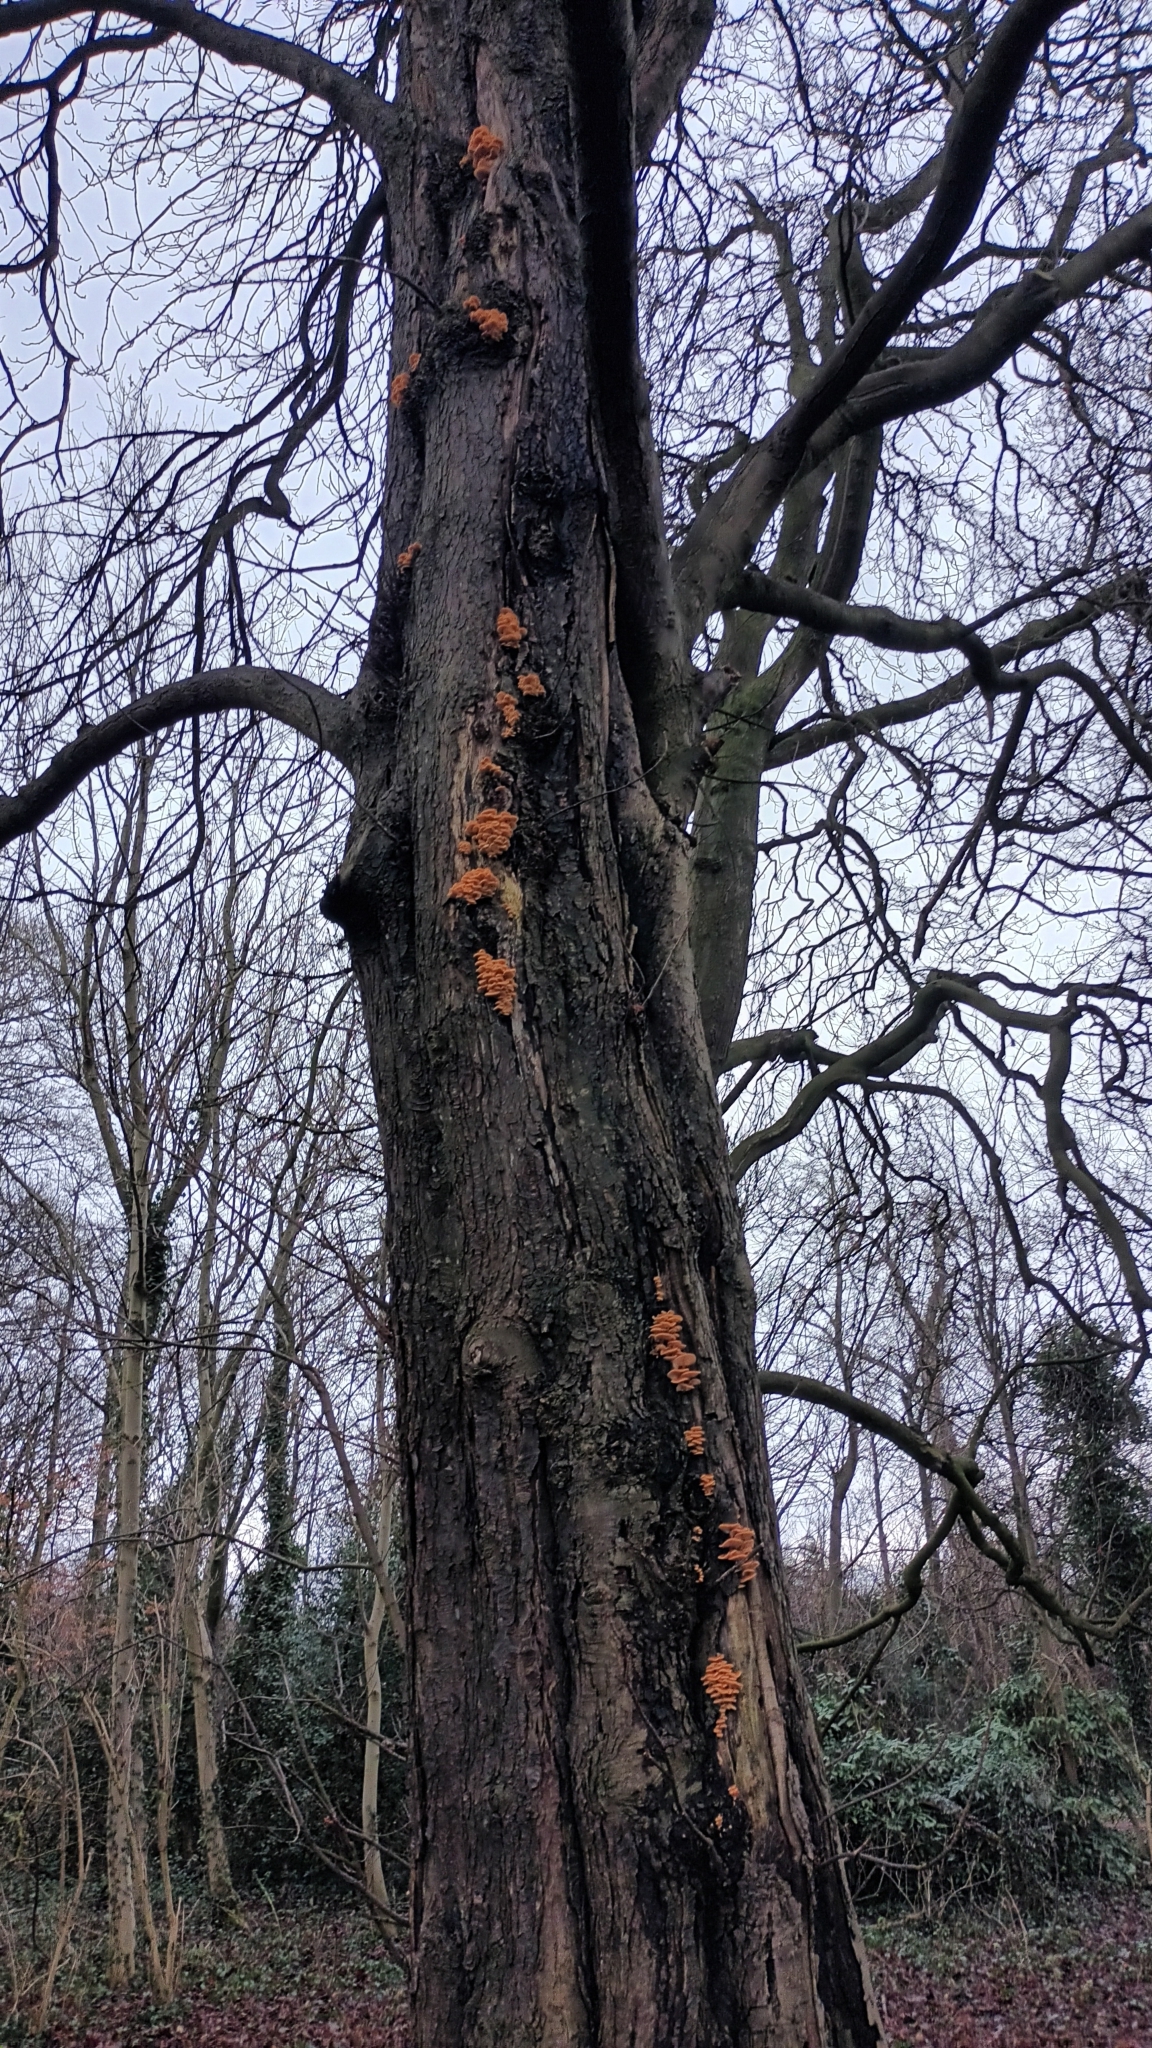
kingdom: Fungi
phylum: Basidiomycota
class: Agaricomycetes
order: Agaricales
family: Physalacriaceae
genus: Flammulina
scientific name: Flammulina
